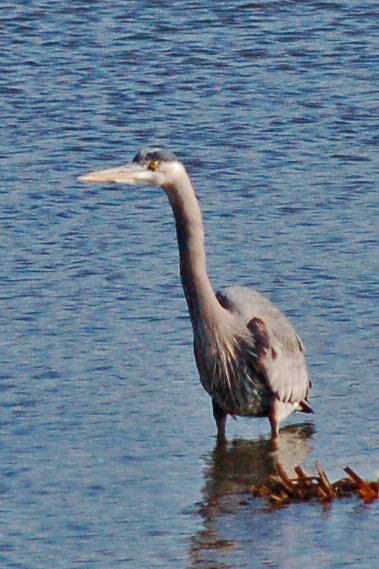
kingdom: Animalia
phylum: Chordata
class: Aves
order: Pelecaniformes
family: Ardeidae
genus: Ardea
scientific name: Ardea herodias
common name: Great blue heron
